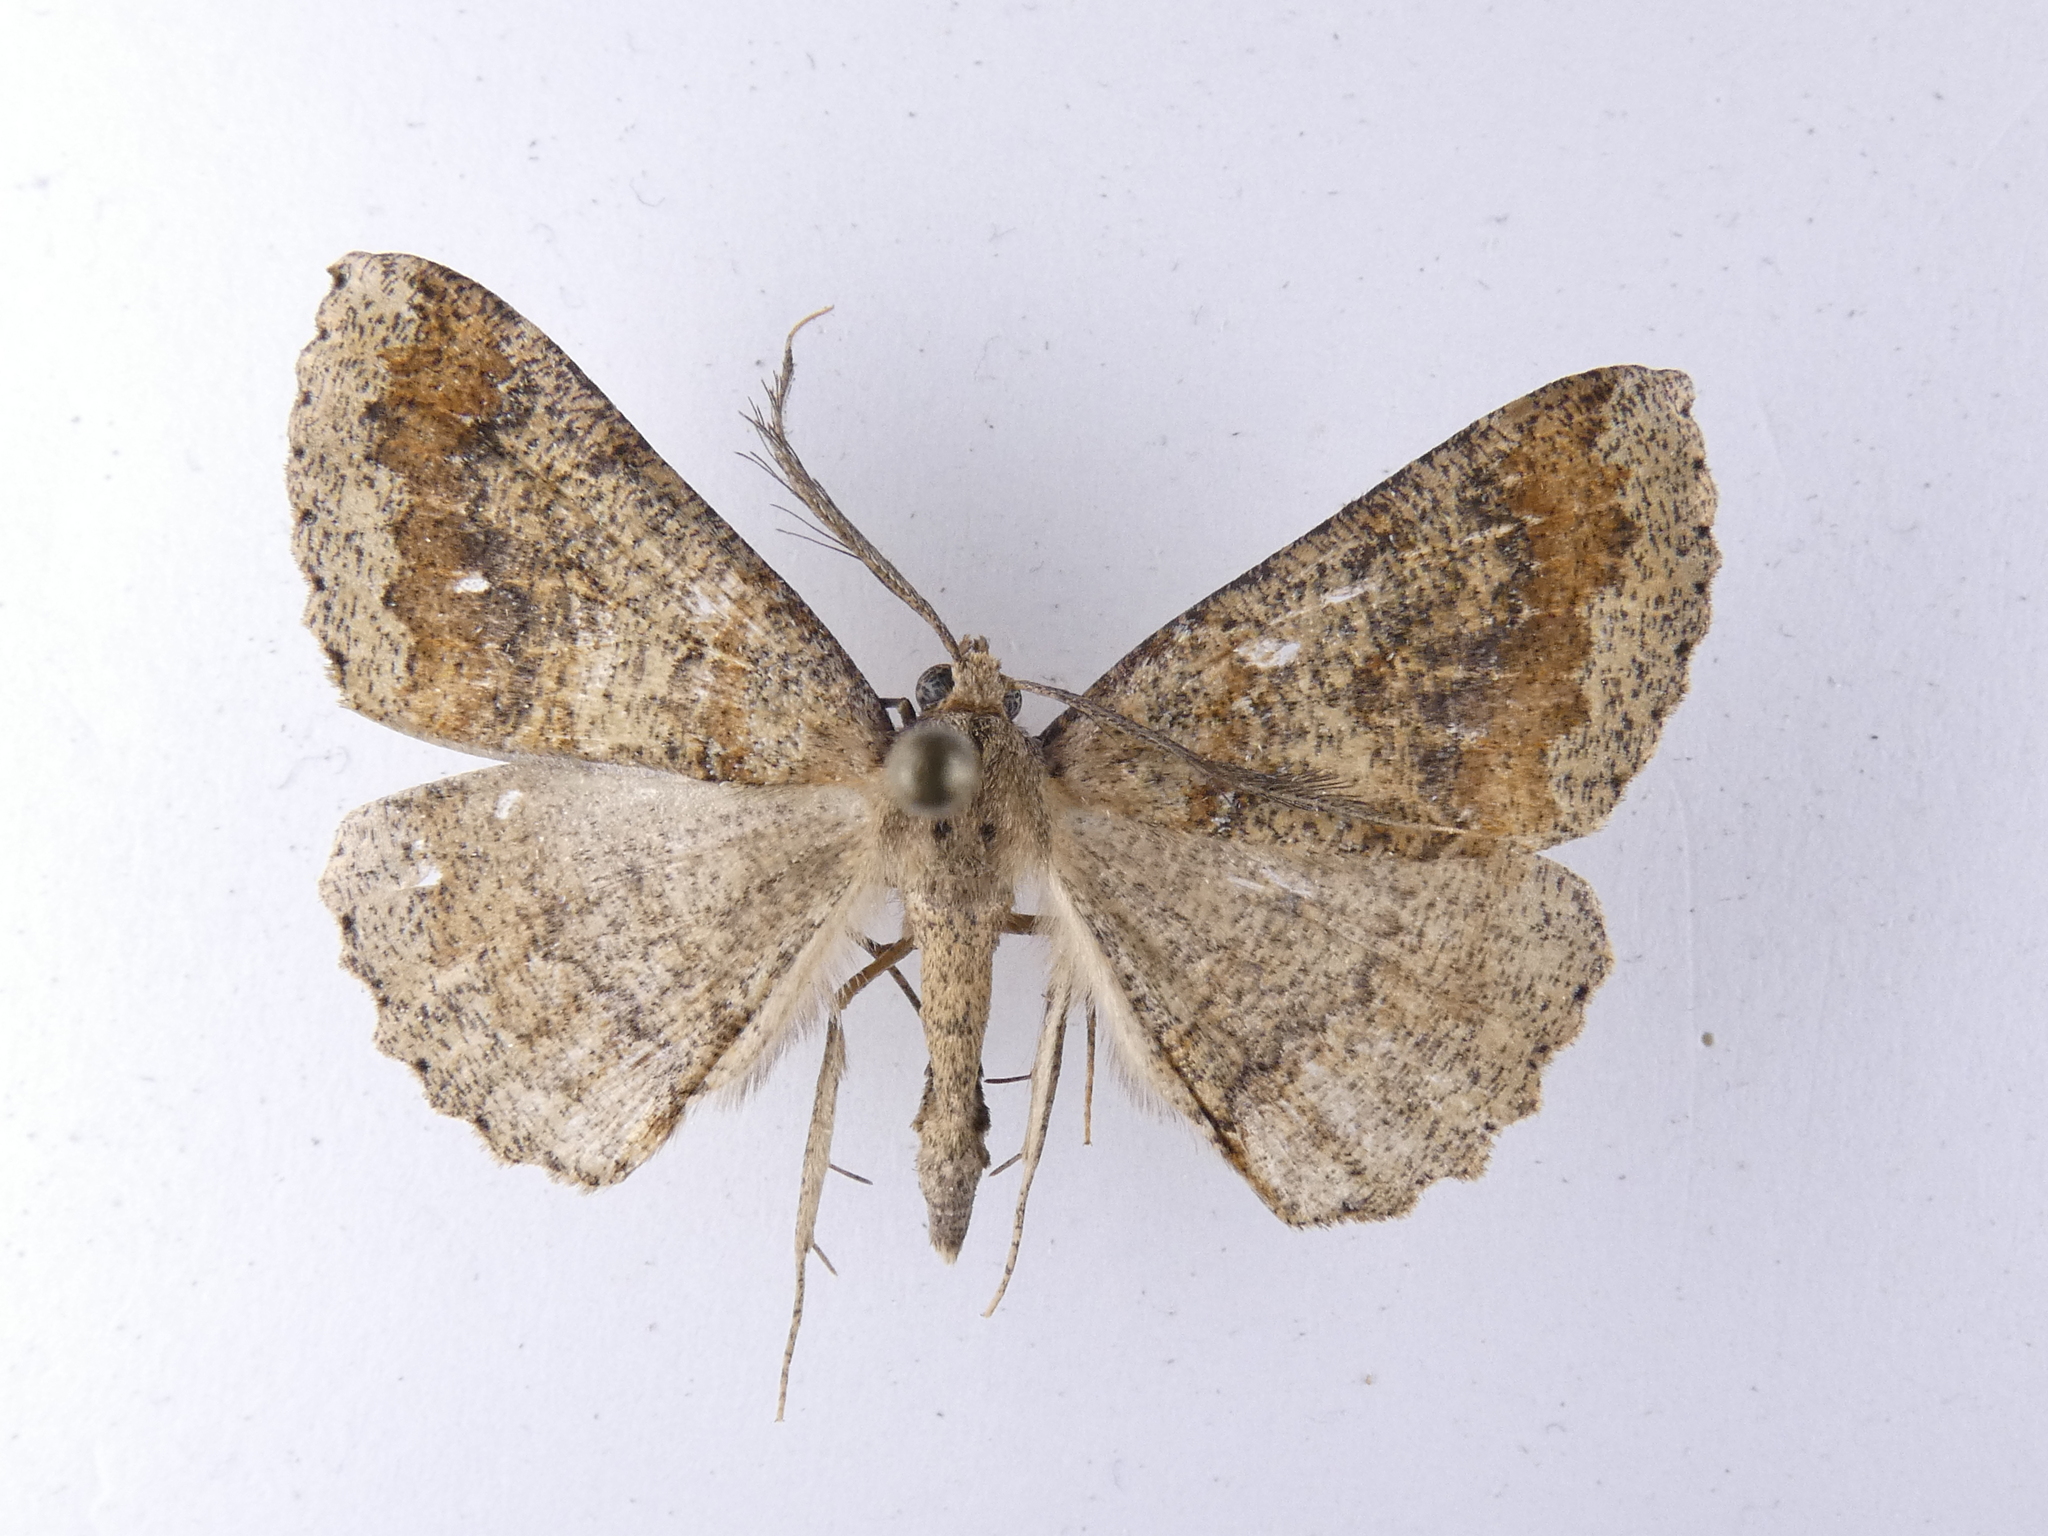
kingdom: Animalia
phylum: Arthropoda
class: Insecta
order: Lepidoptera
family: Geometridae
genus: Cleora
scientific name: Cleora scriptaria
